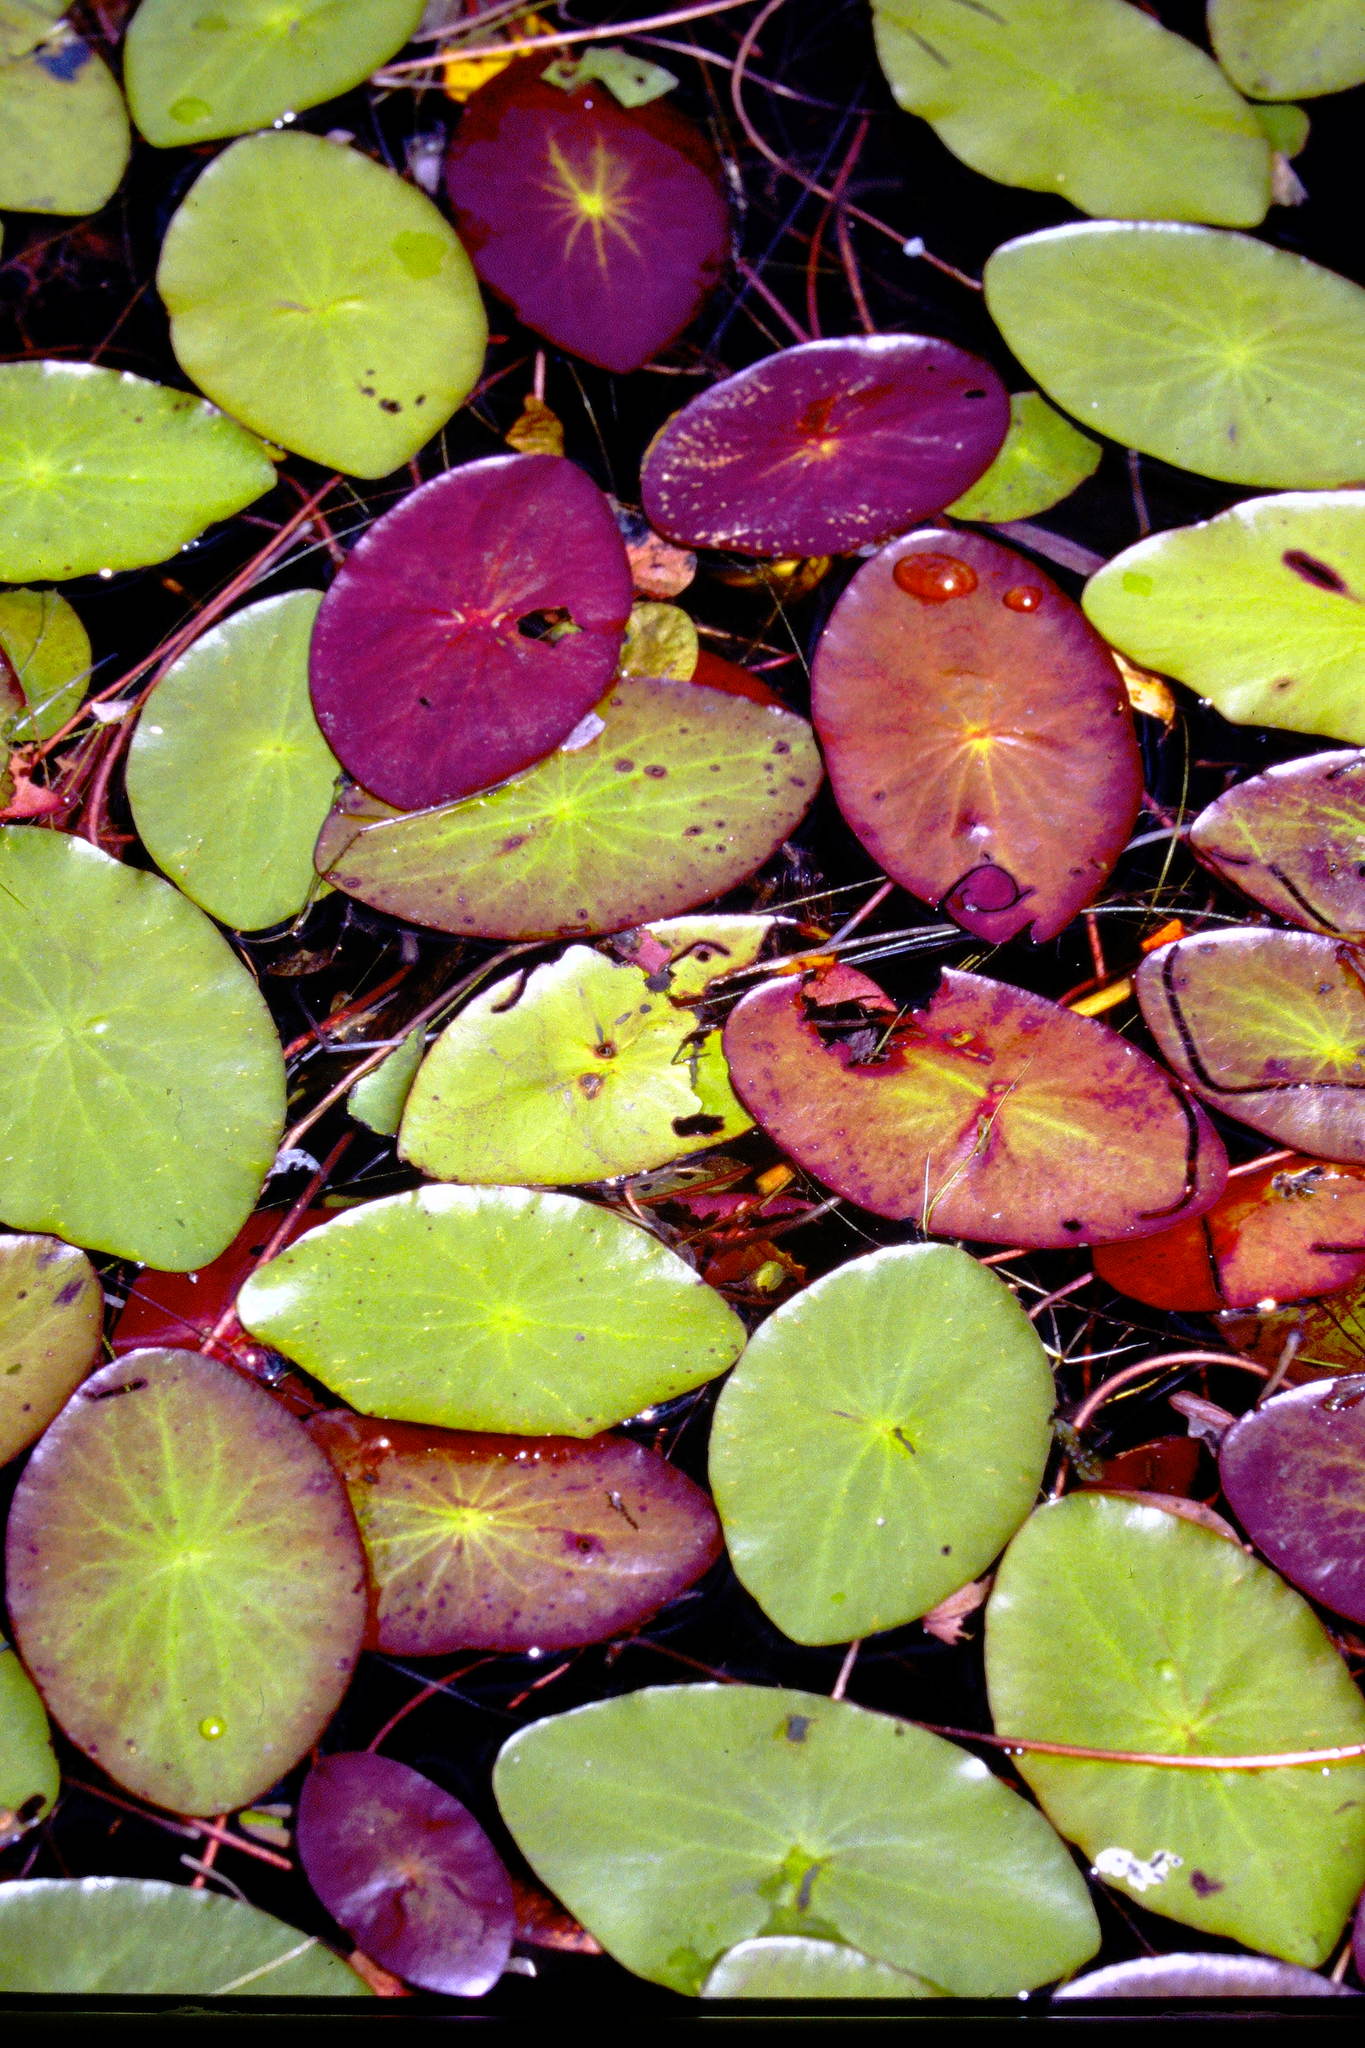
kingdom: Plantae
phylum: Tracheophyta
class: Magnoliopsida
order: Nymphaeales
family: Cabombaceae
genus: Brasenia
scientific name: Brasenia schreberi
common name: Water-shield
